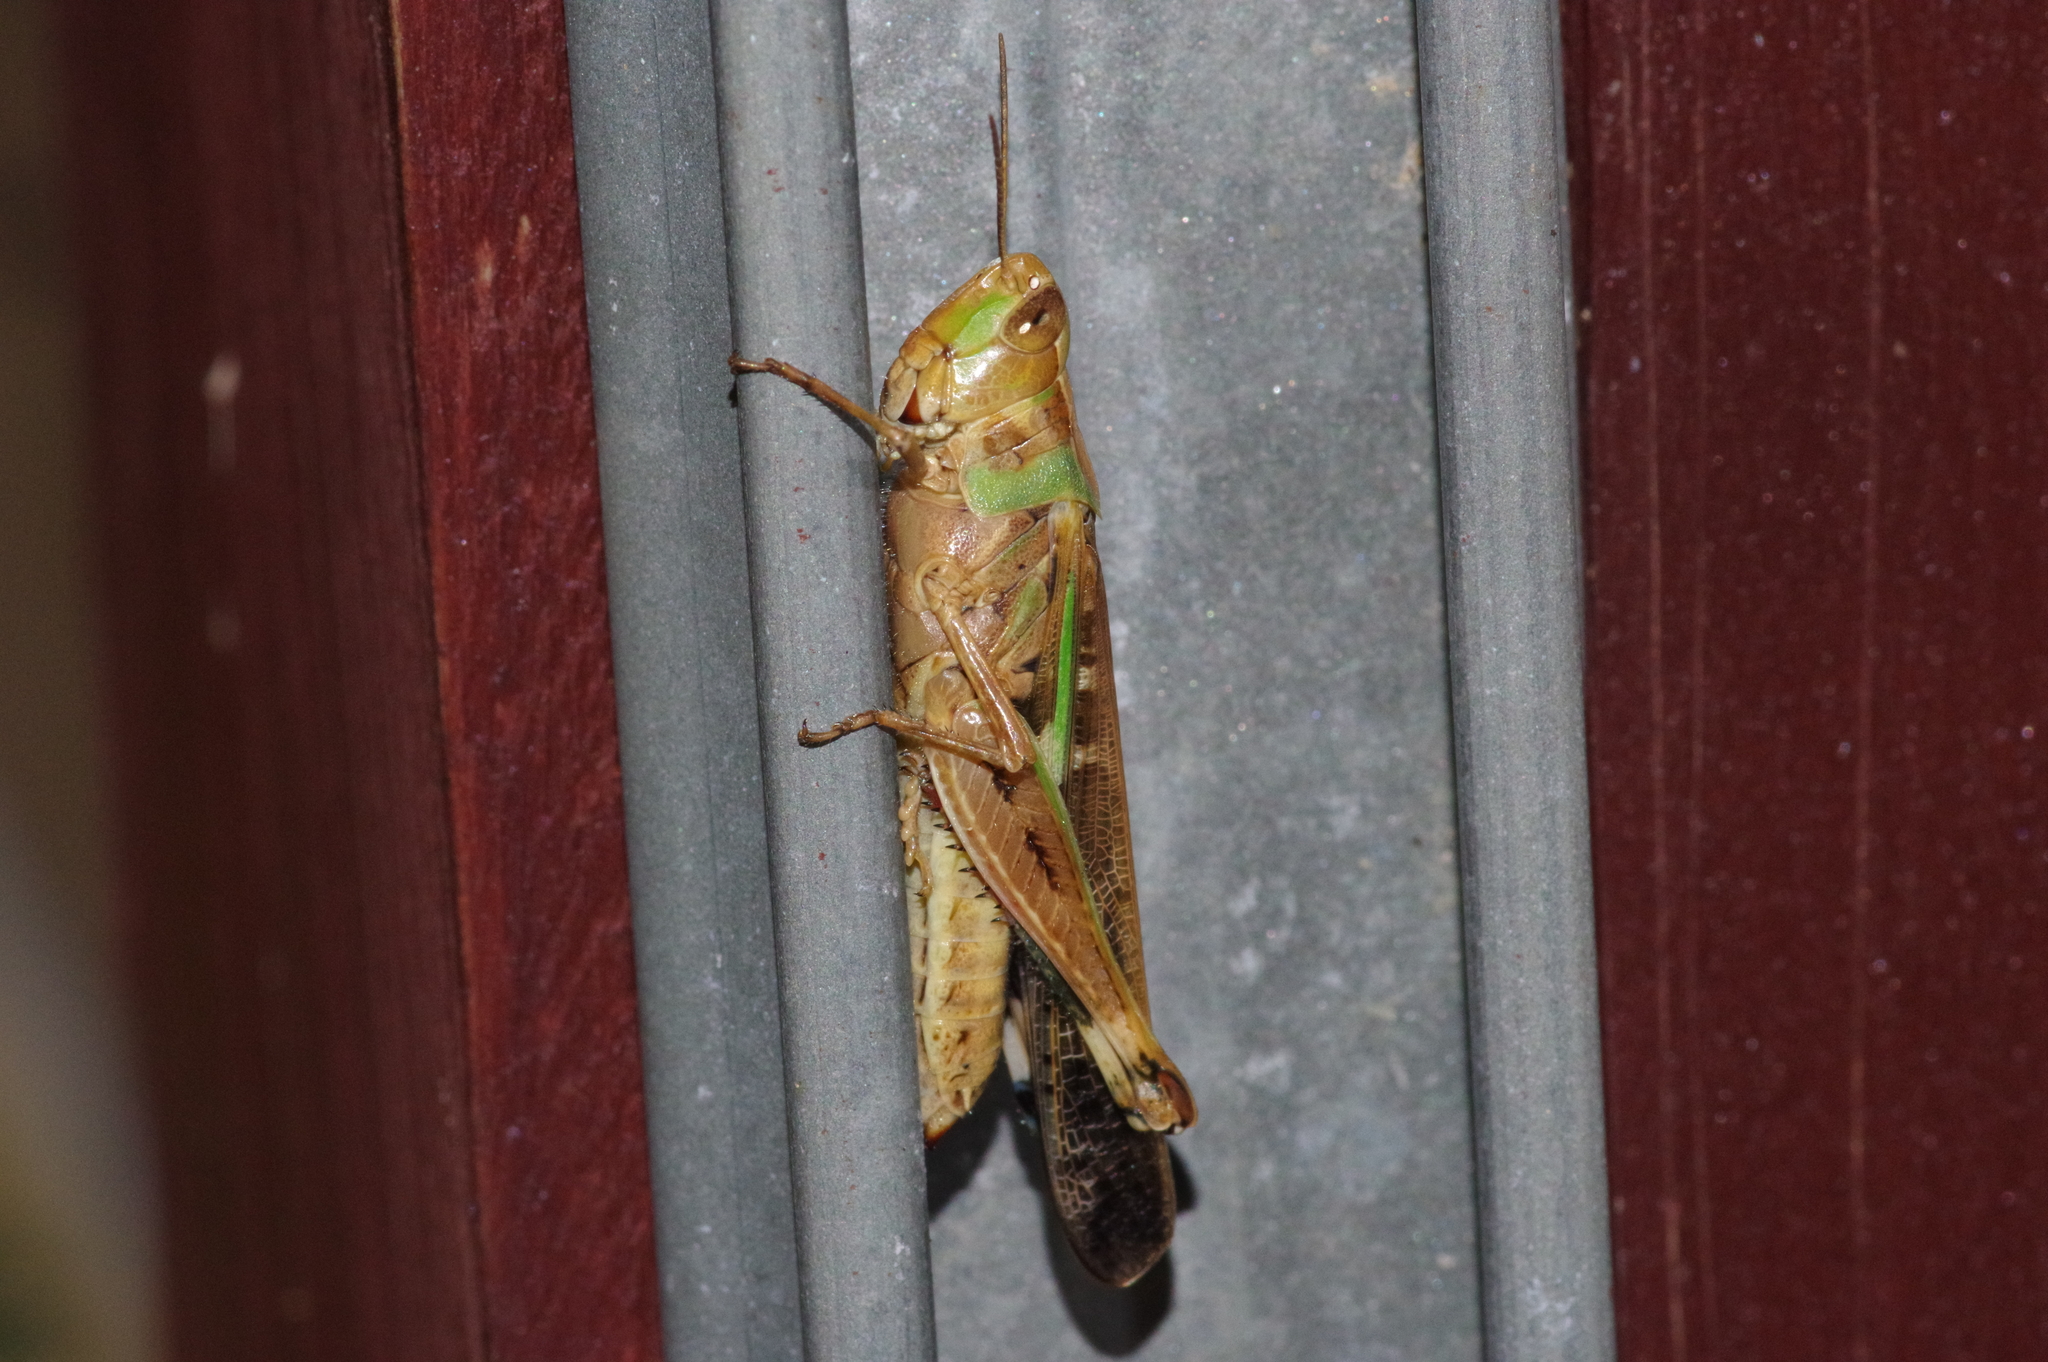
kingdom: Animalia
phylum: Arthropoda
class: Insecta
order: Orthoptera
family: Acrididae
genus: Aiolopus
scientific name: Aiolopus thalassinus
